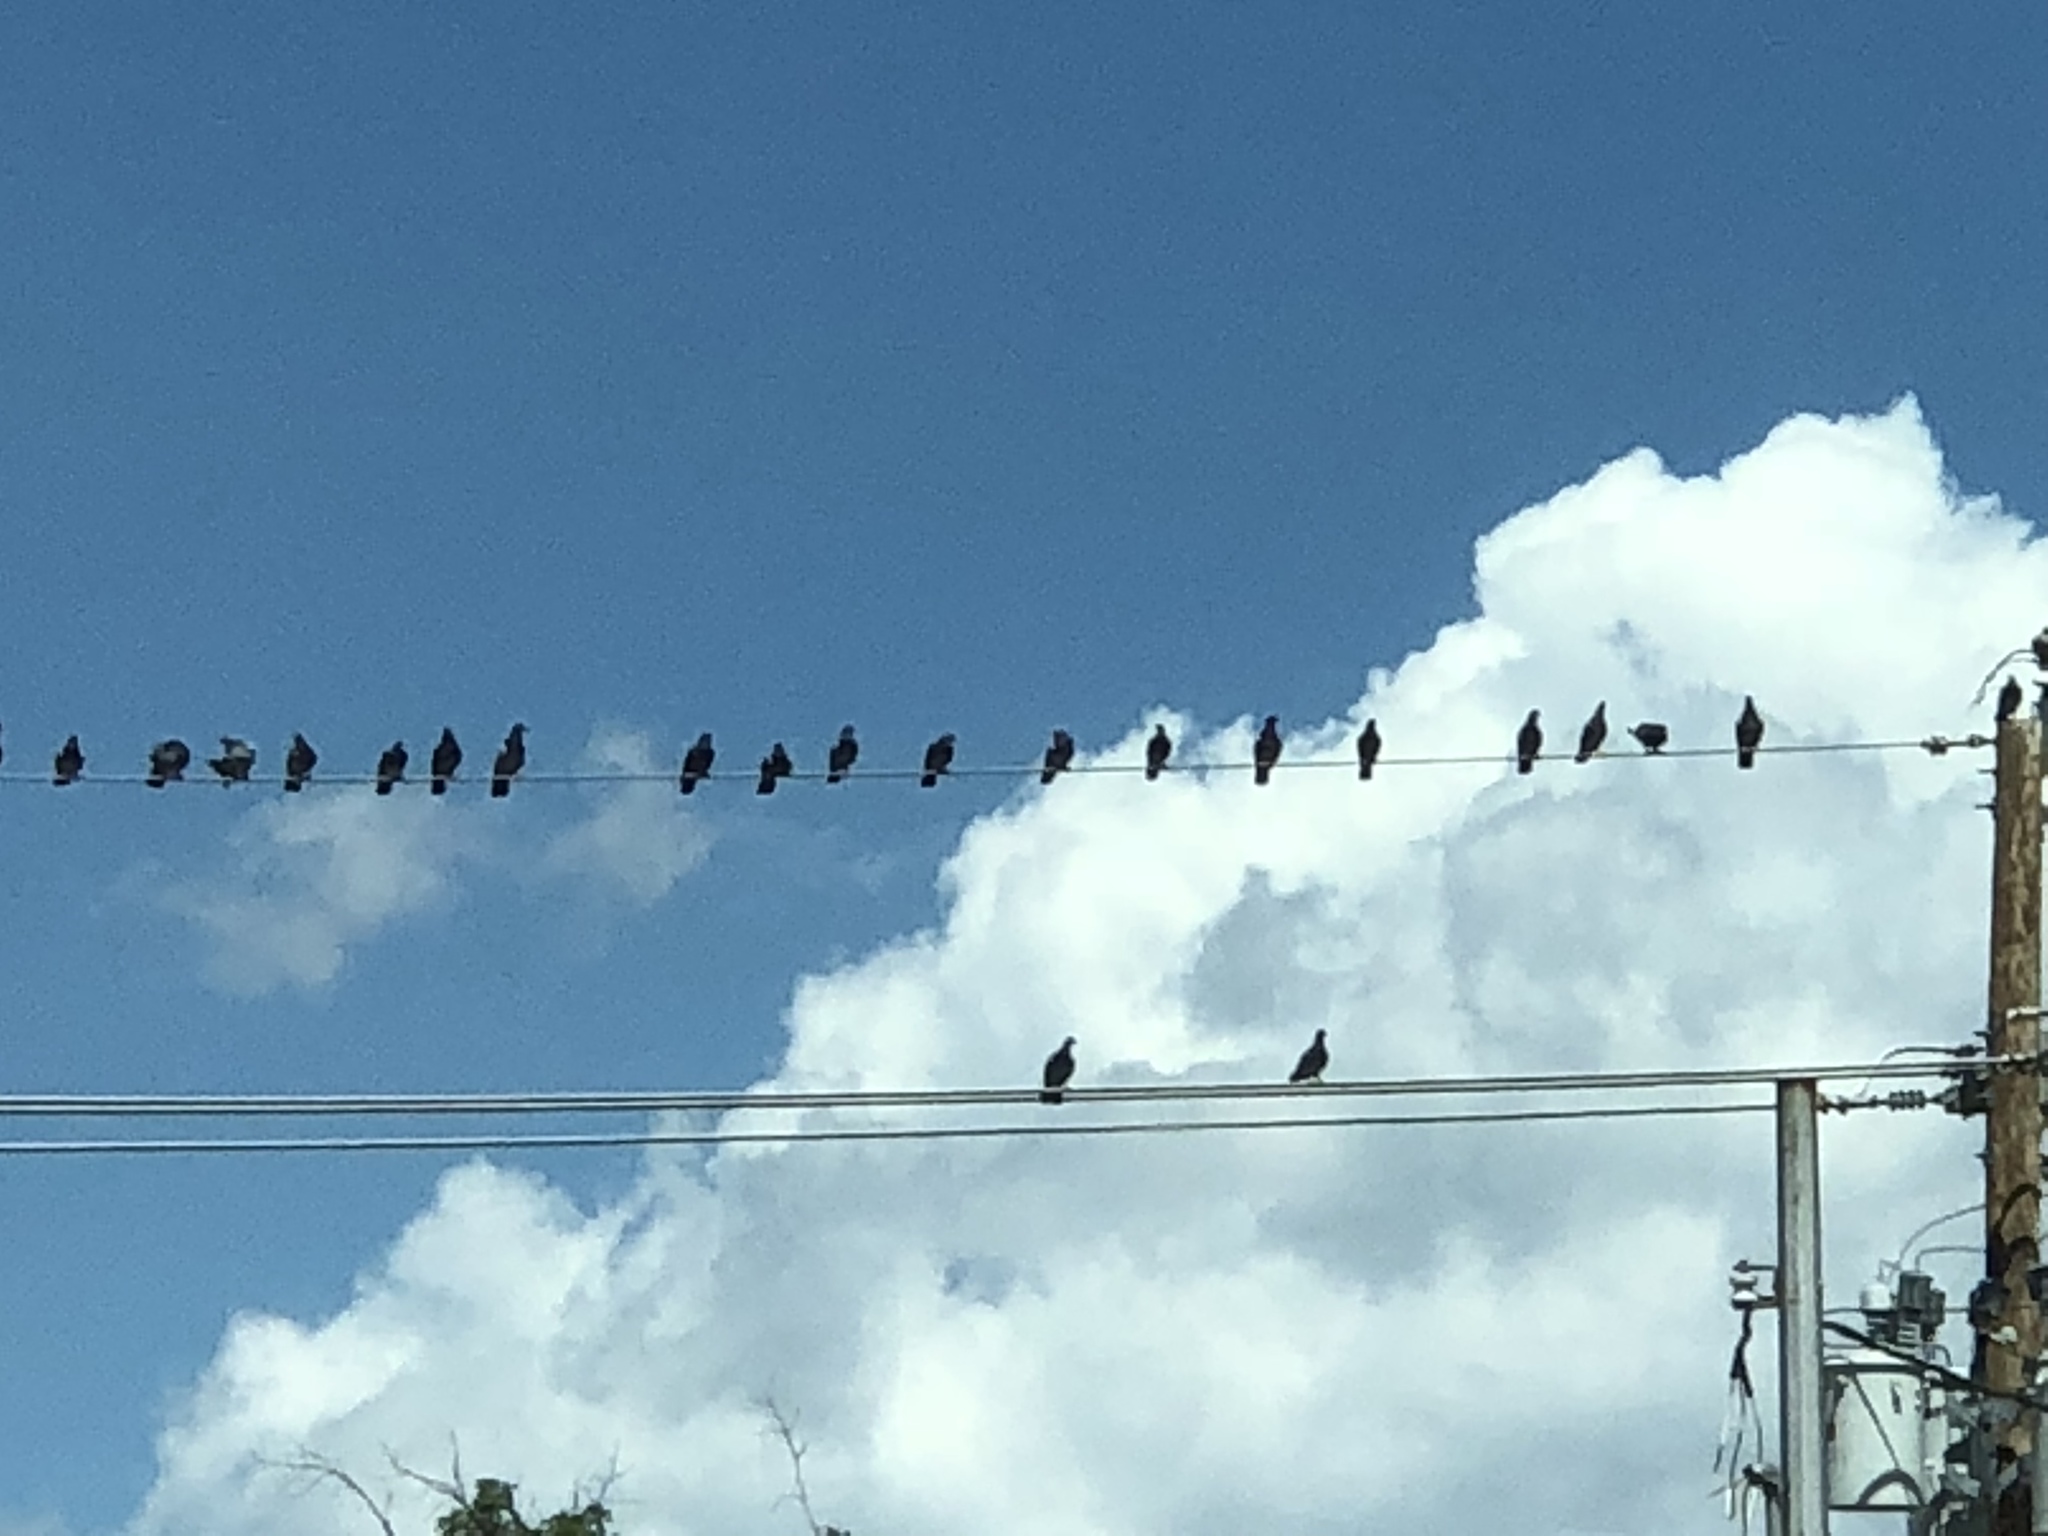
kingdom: Animalia
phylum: Chordata
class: Aves
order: Columbiformes
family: Columbidae
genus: Columba
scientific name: Columba livia
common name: Rock pigeon
